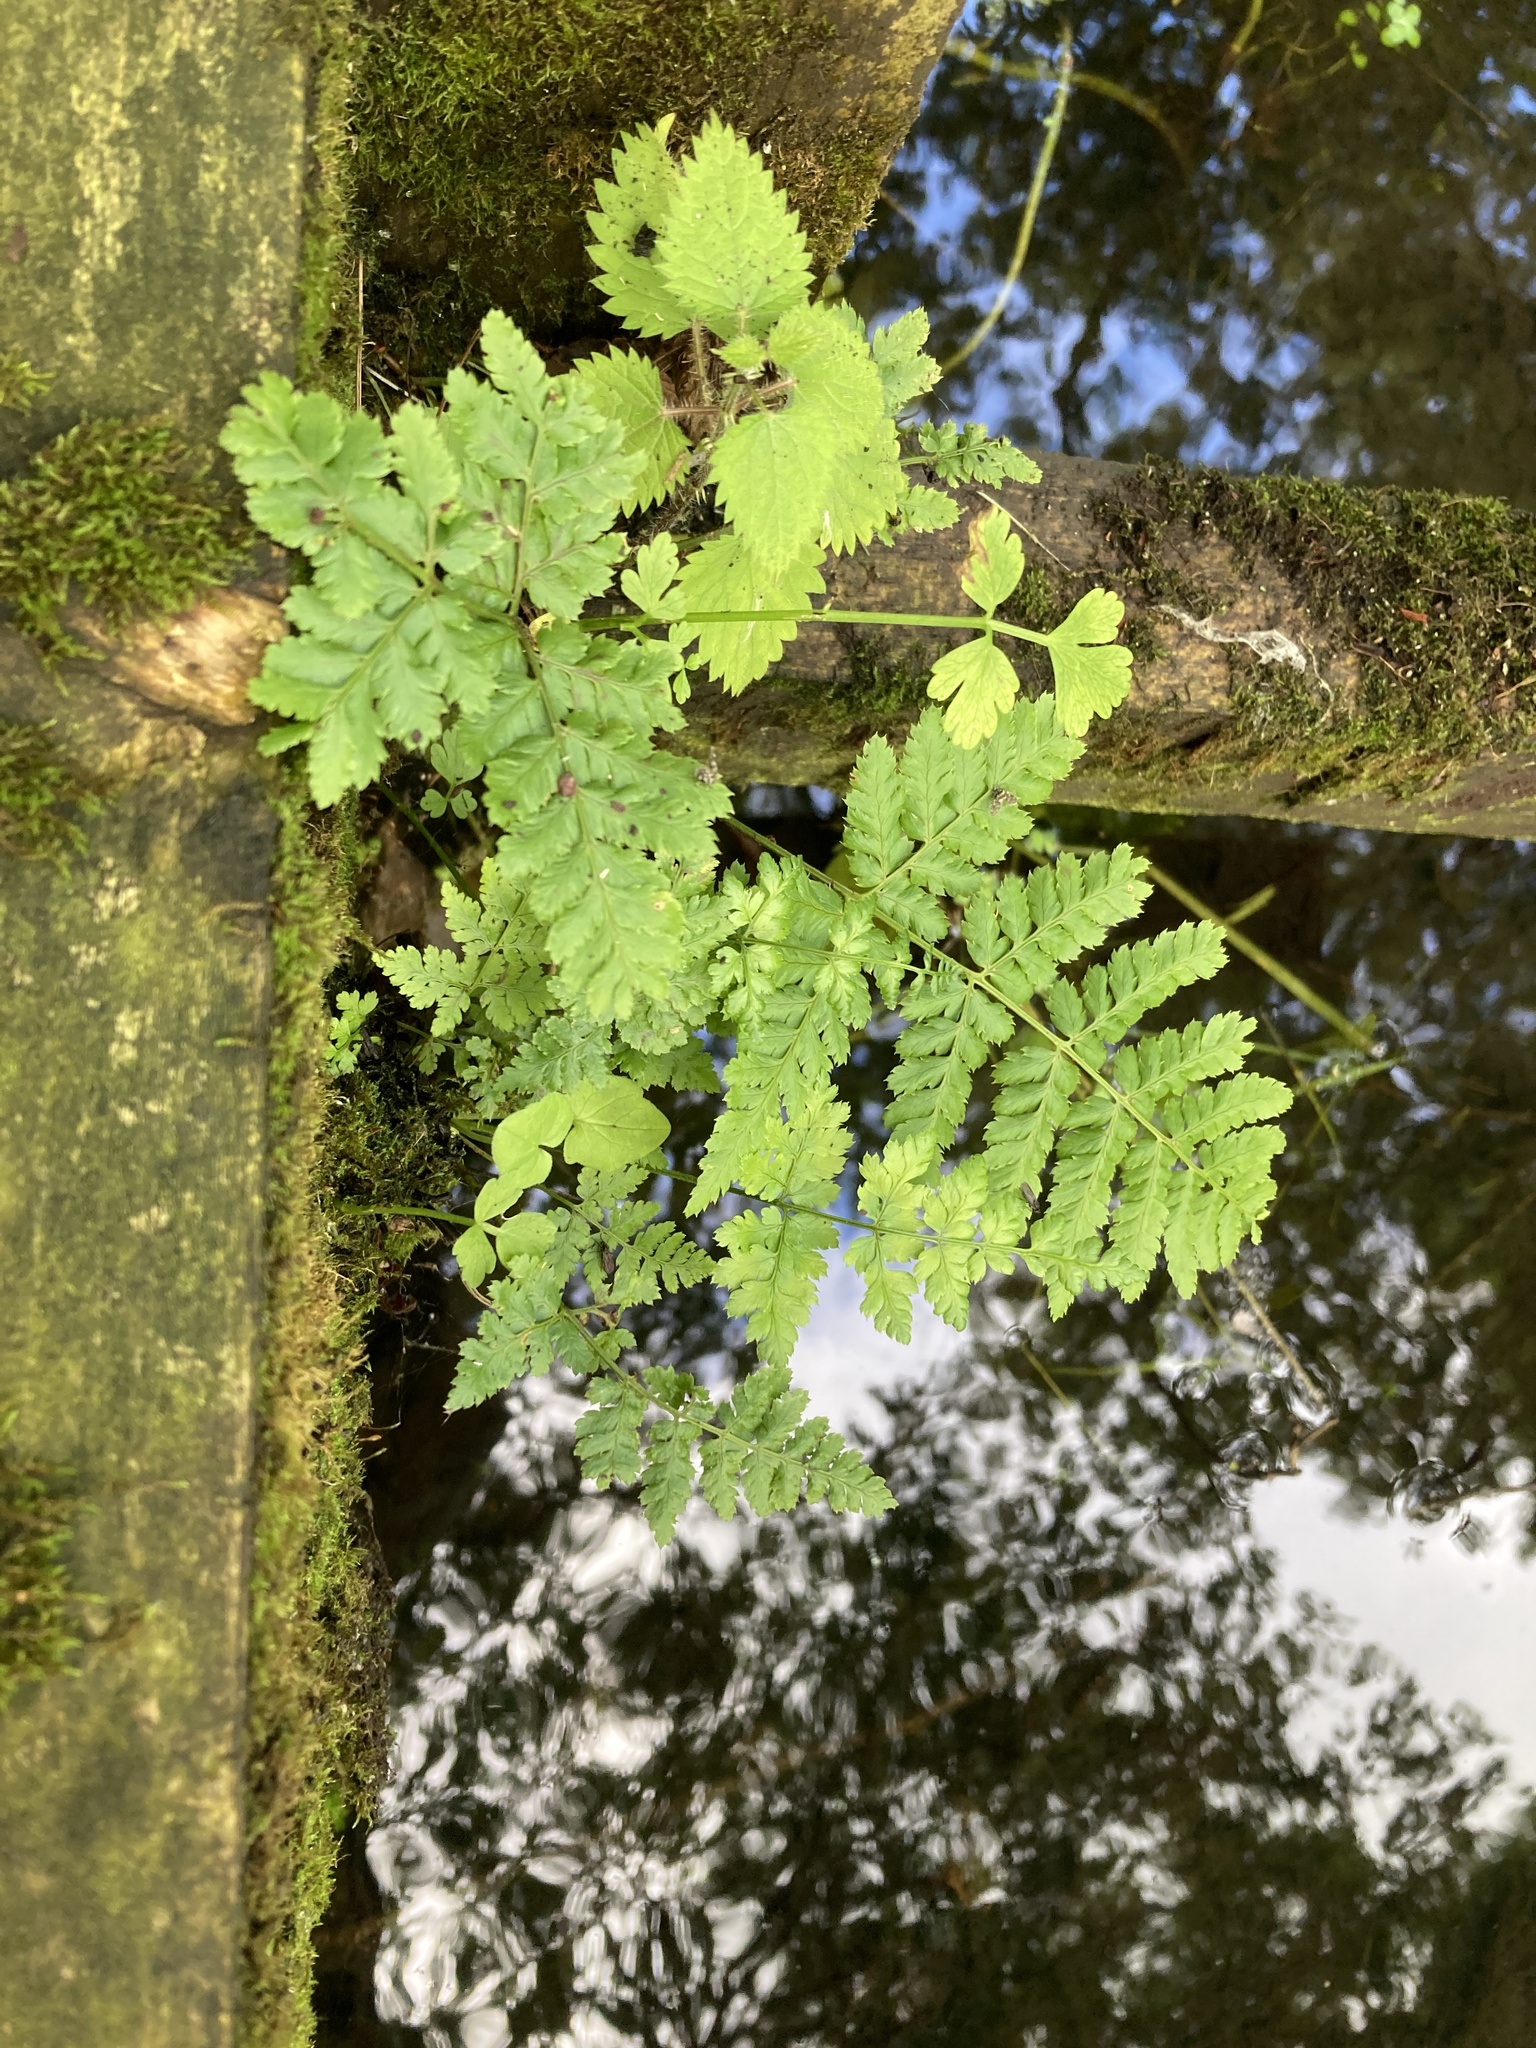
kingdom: Plantae
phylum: Tracheophyta
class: Polypodiopsida
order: Polypodiales
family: Dryopteridaceae
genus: Dryopteris
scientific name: Dryopteris dilatata
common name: Broad buckler-fern
